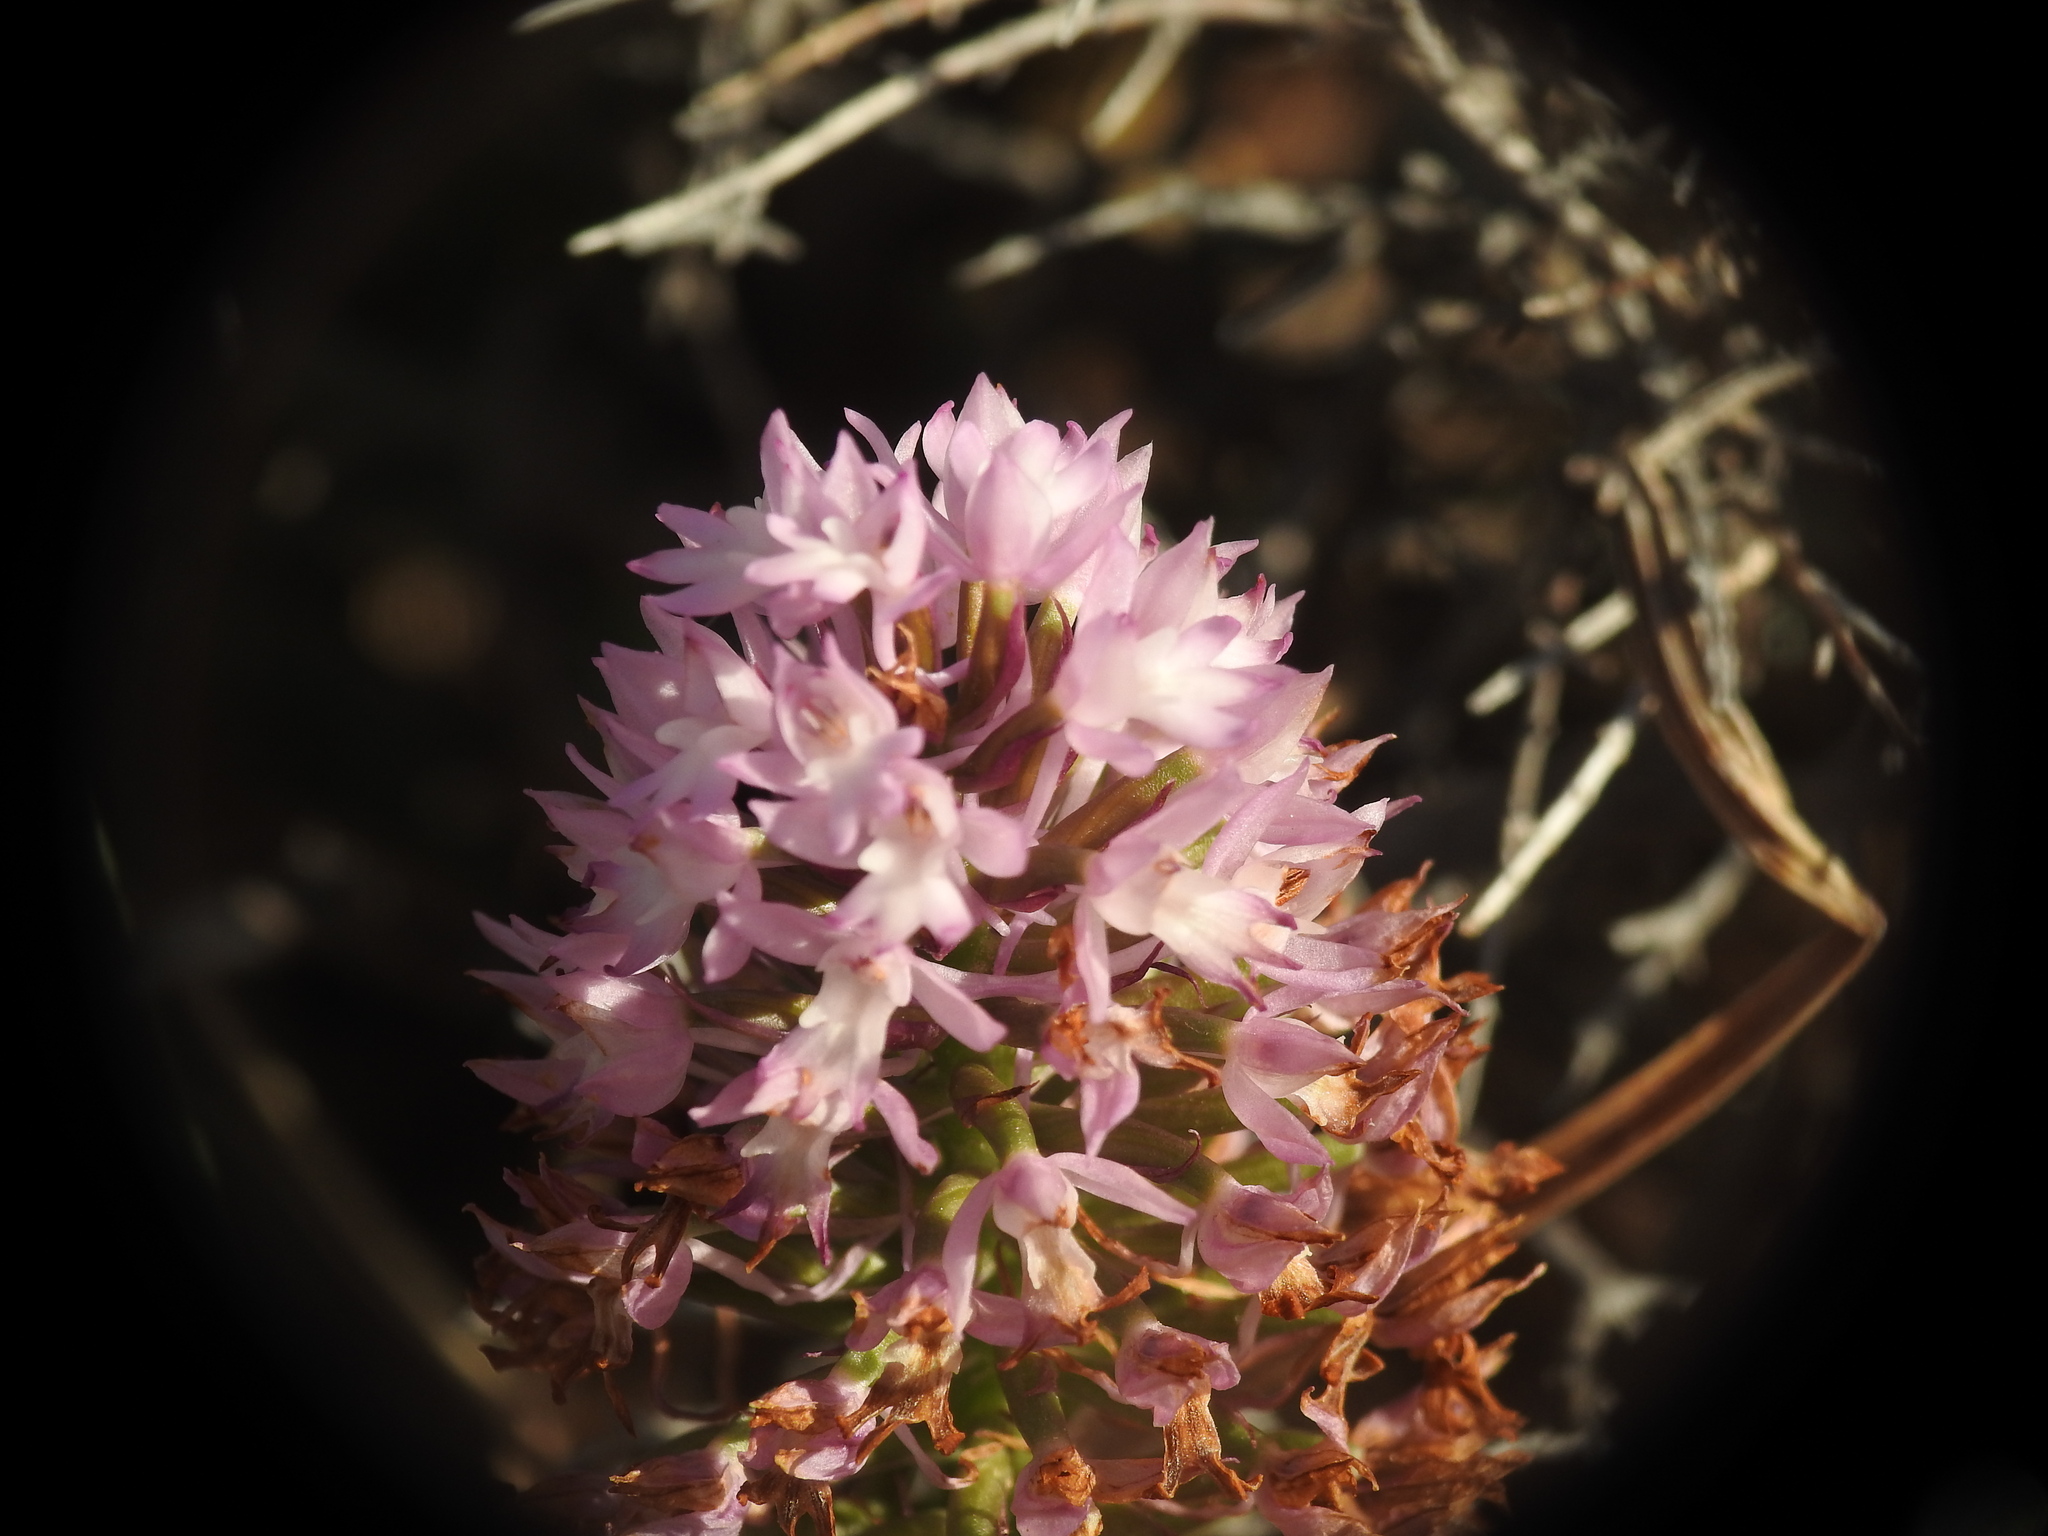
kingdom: Plantae
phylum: Tracheophyta
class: Liliopsida
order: Asparagales
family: Orchidaceae
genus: Anacamptis
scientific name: Anacamptis pyramidalis
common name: Pyramidal orchid
